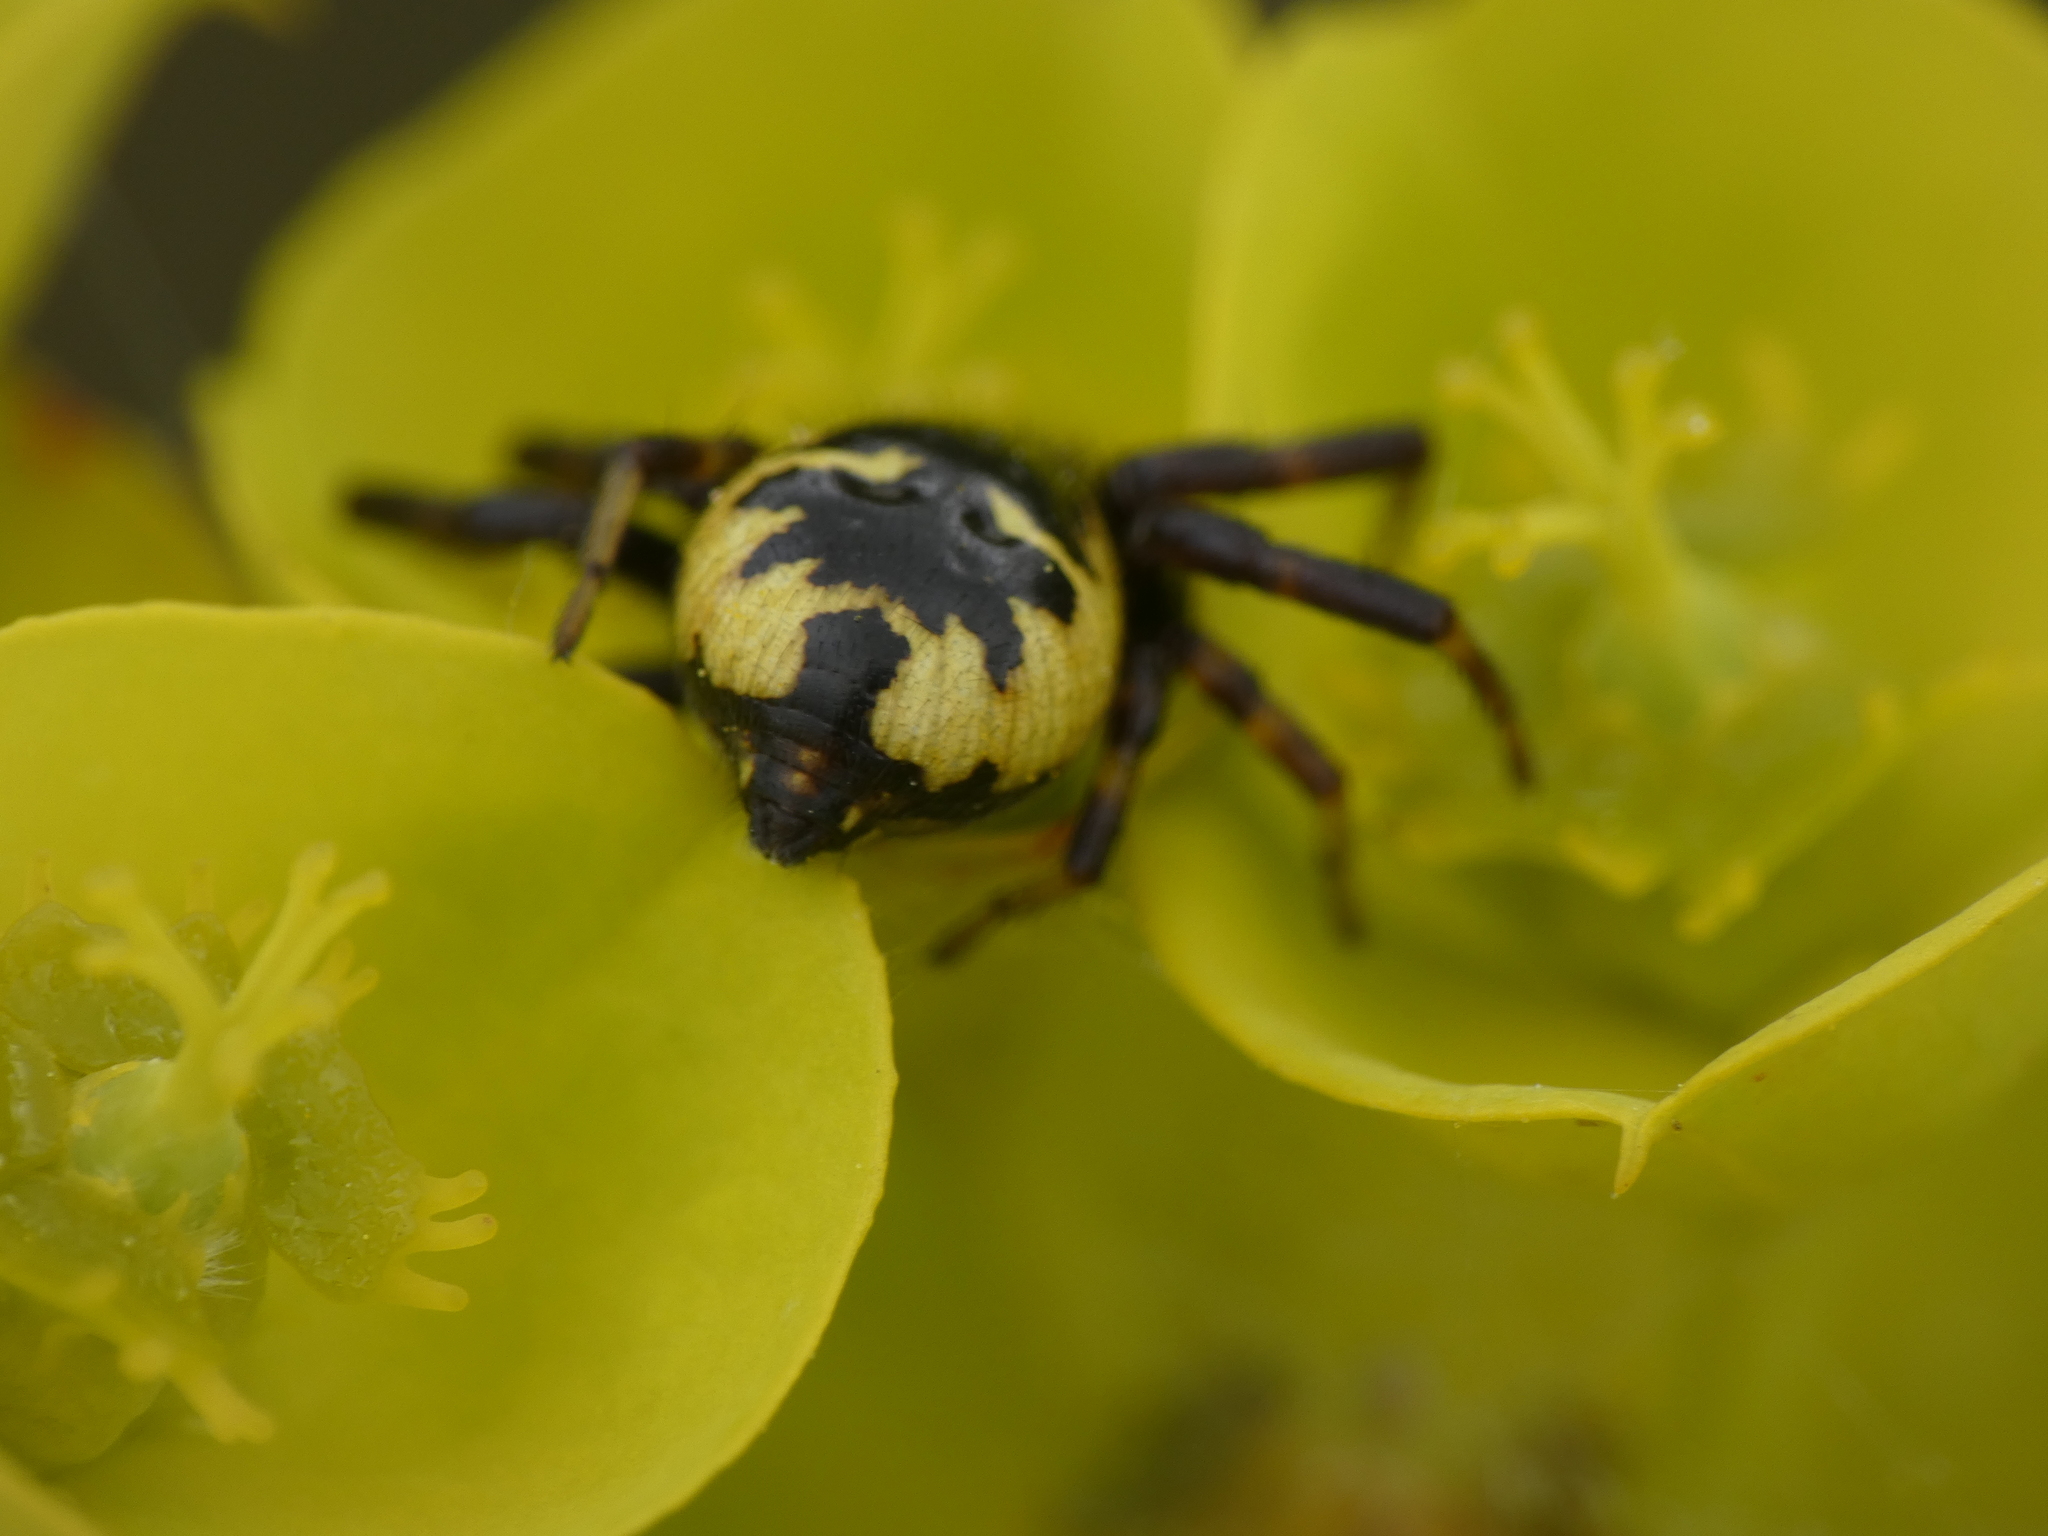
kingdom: Animalia
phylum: Arthropoda
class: Arachnida
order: Araneae
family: Thomisidae
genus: Synema
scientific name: Synema globosum
